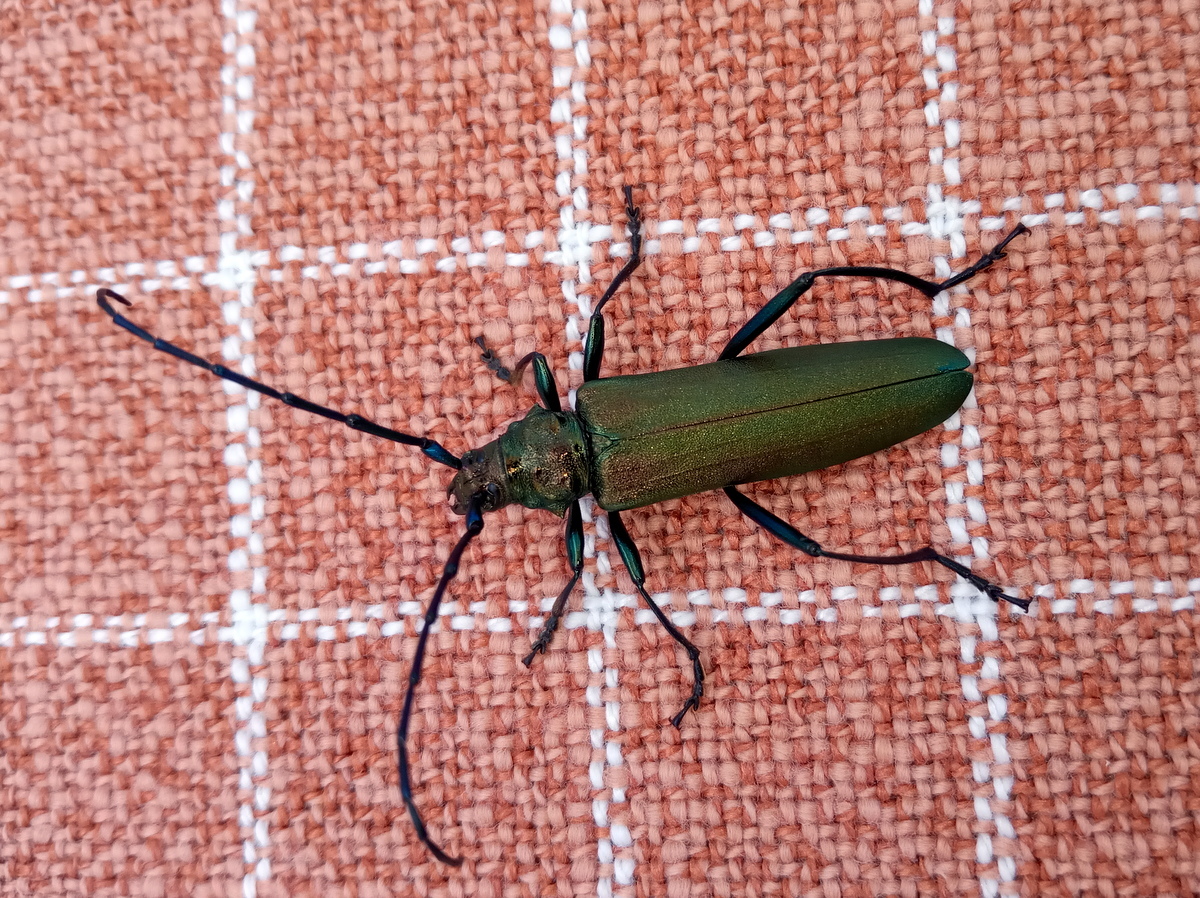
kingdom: Animalia
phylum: Arthropoda
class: Insecta
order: Coleoptera
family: Cerambycidae
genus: Aromia
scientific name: Aromia moschata
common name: Musk beetle
